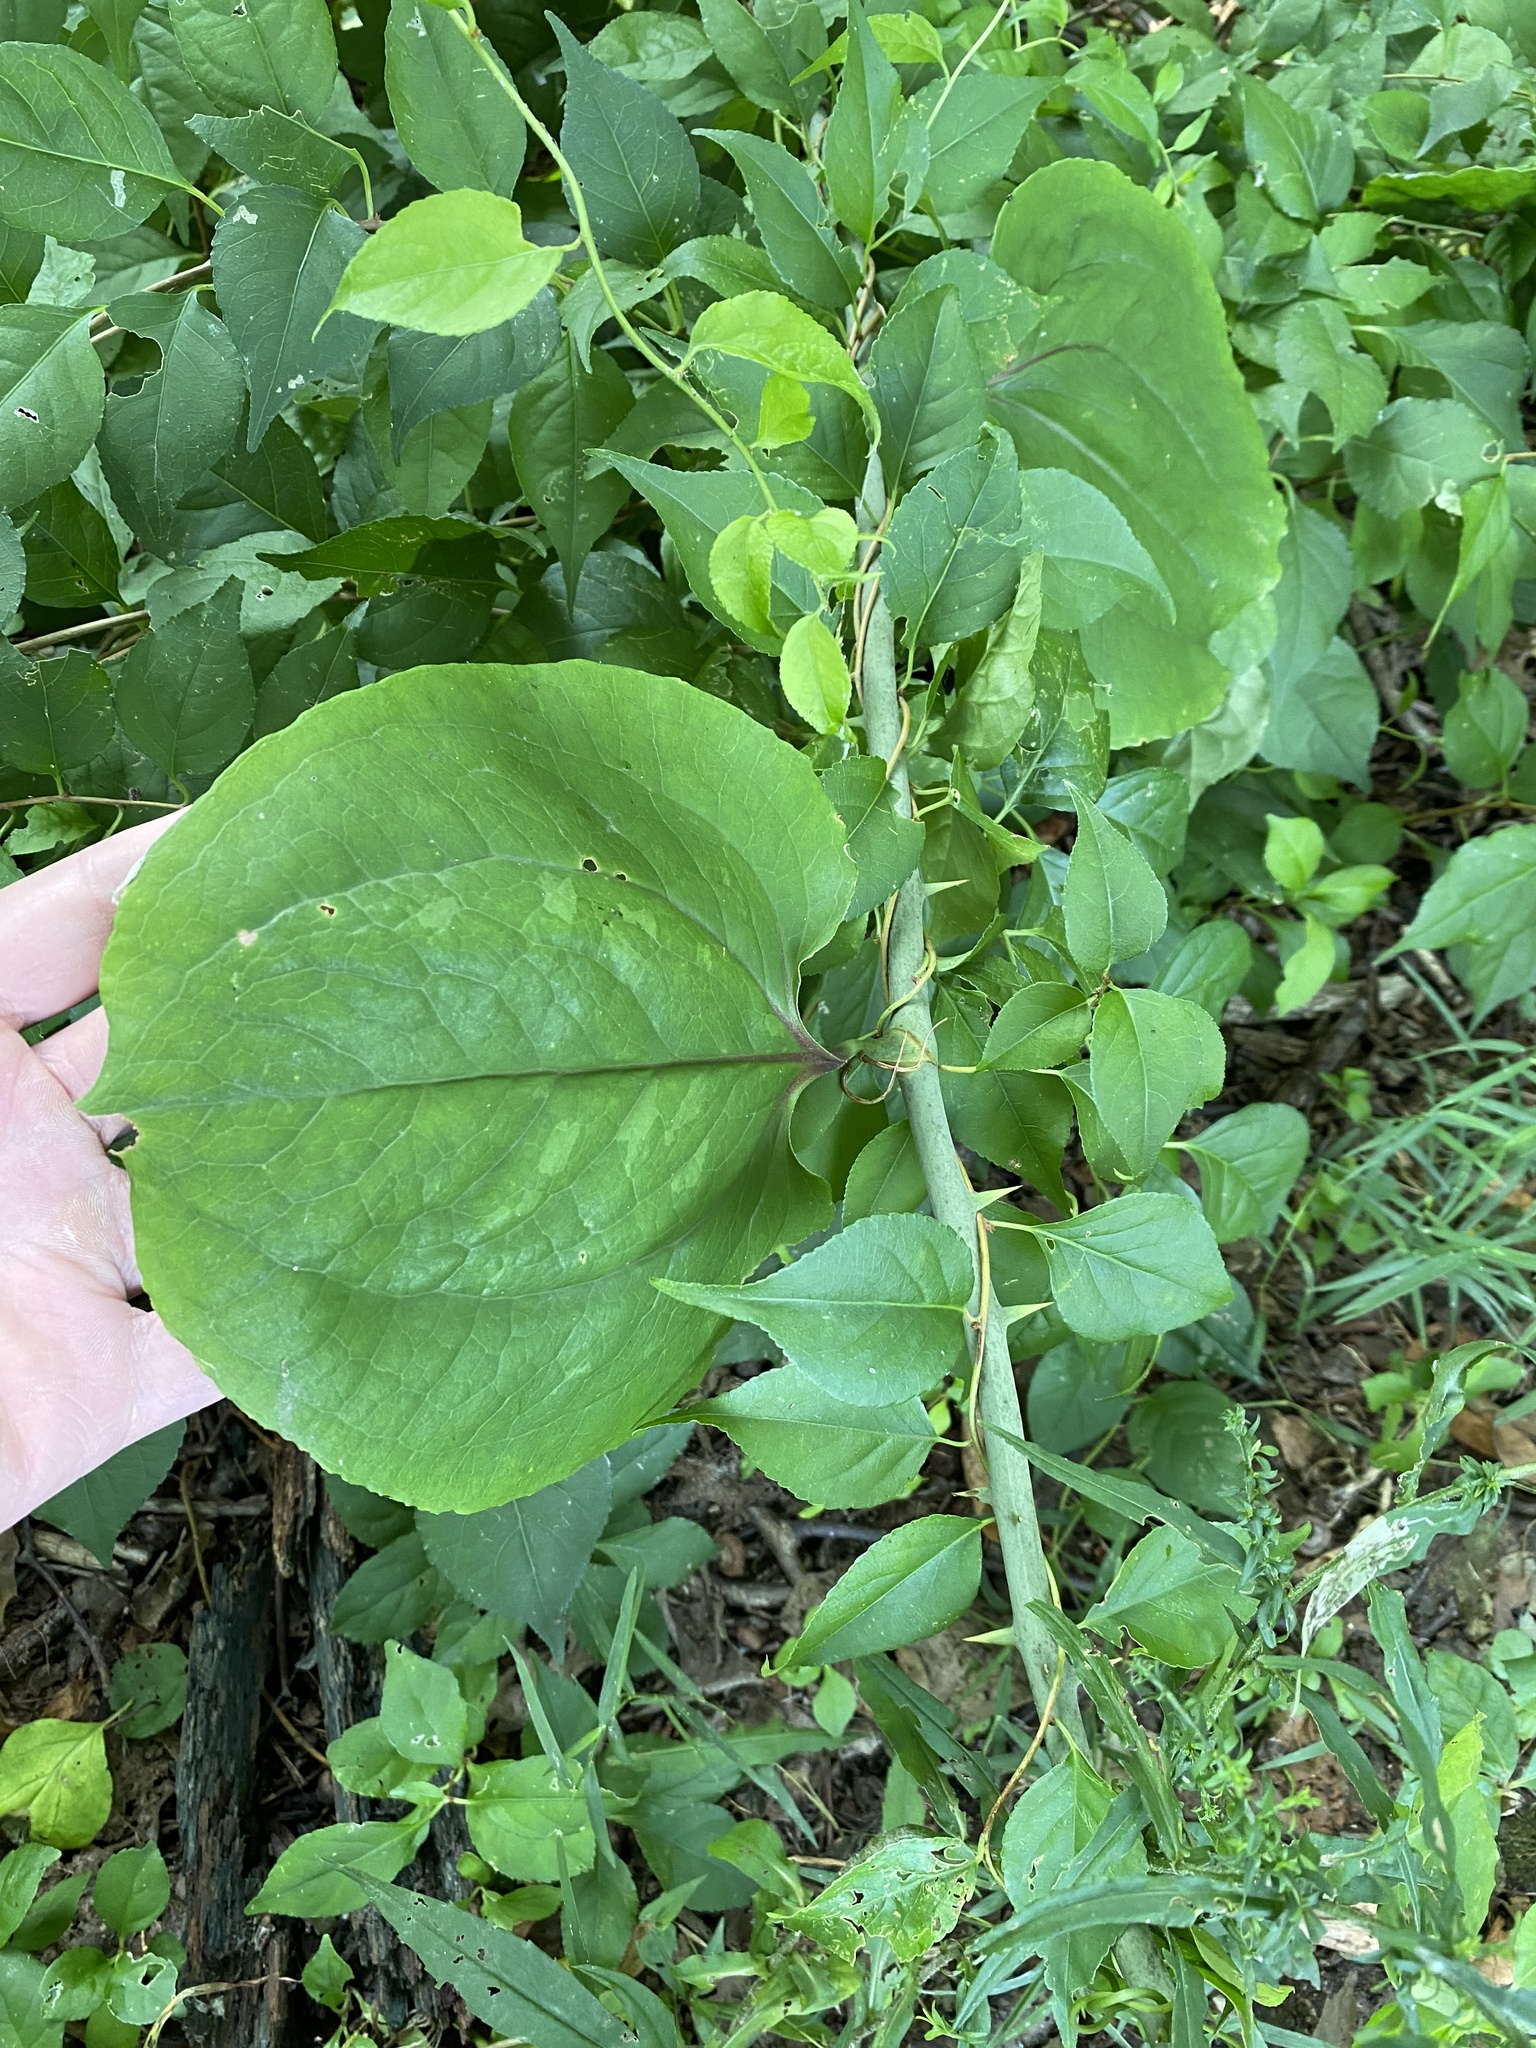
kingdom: Plantae
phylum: Tracheophyta
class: Liliopsida
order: Liliales
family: Smilacaceae
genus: Smilax
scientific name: Smilax rotundifolia
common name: Bullbriar
